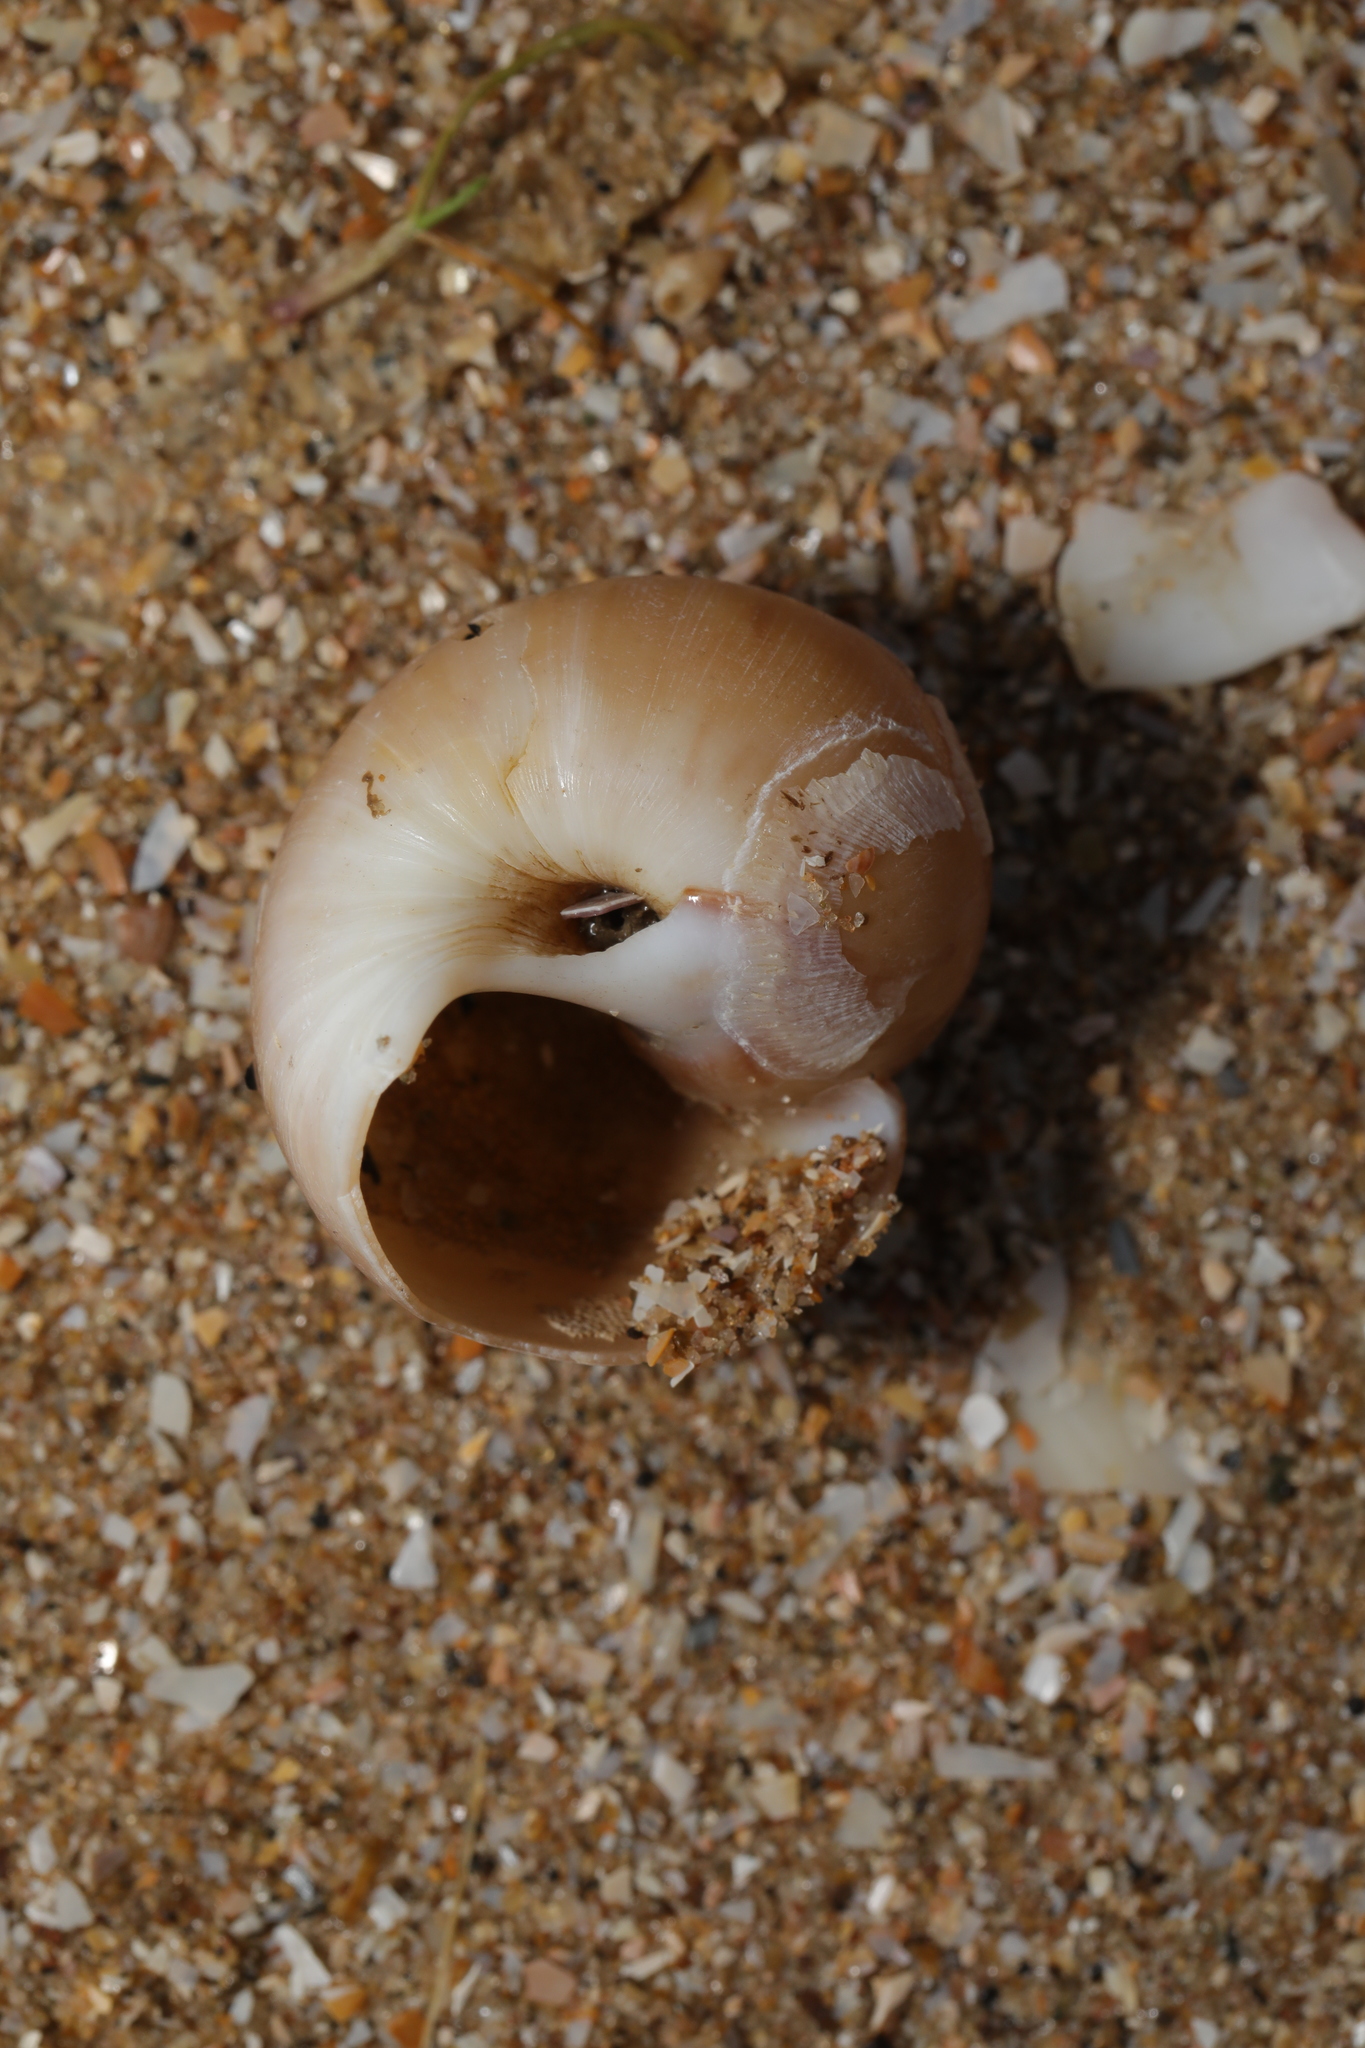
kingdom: Animalia
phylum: Mollusca
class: Gastropoda
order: Littorinimorpha
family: Naticidae
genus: Euspira
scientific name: Euspira catena
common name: Necklace shell
